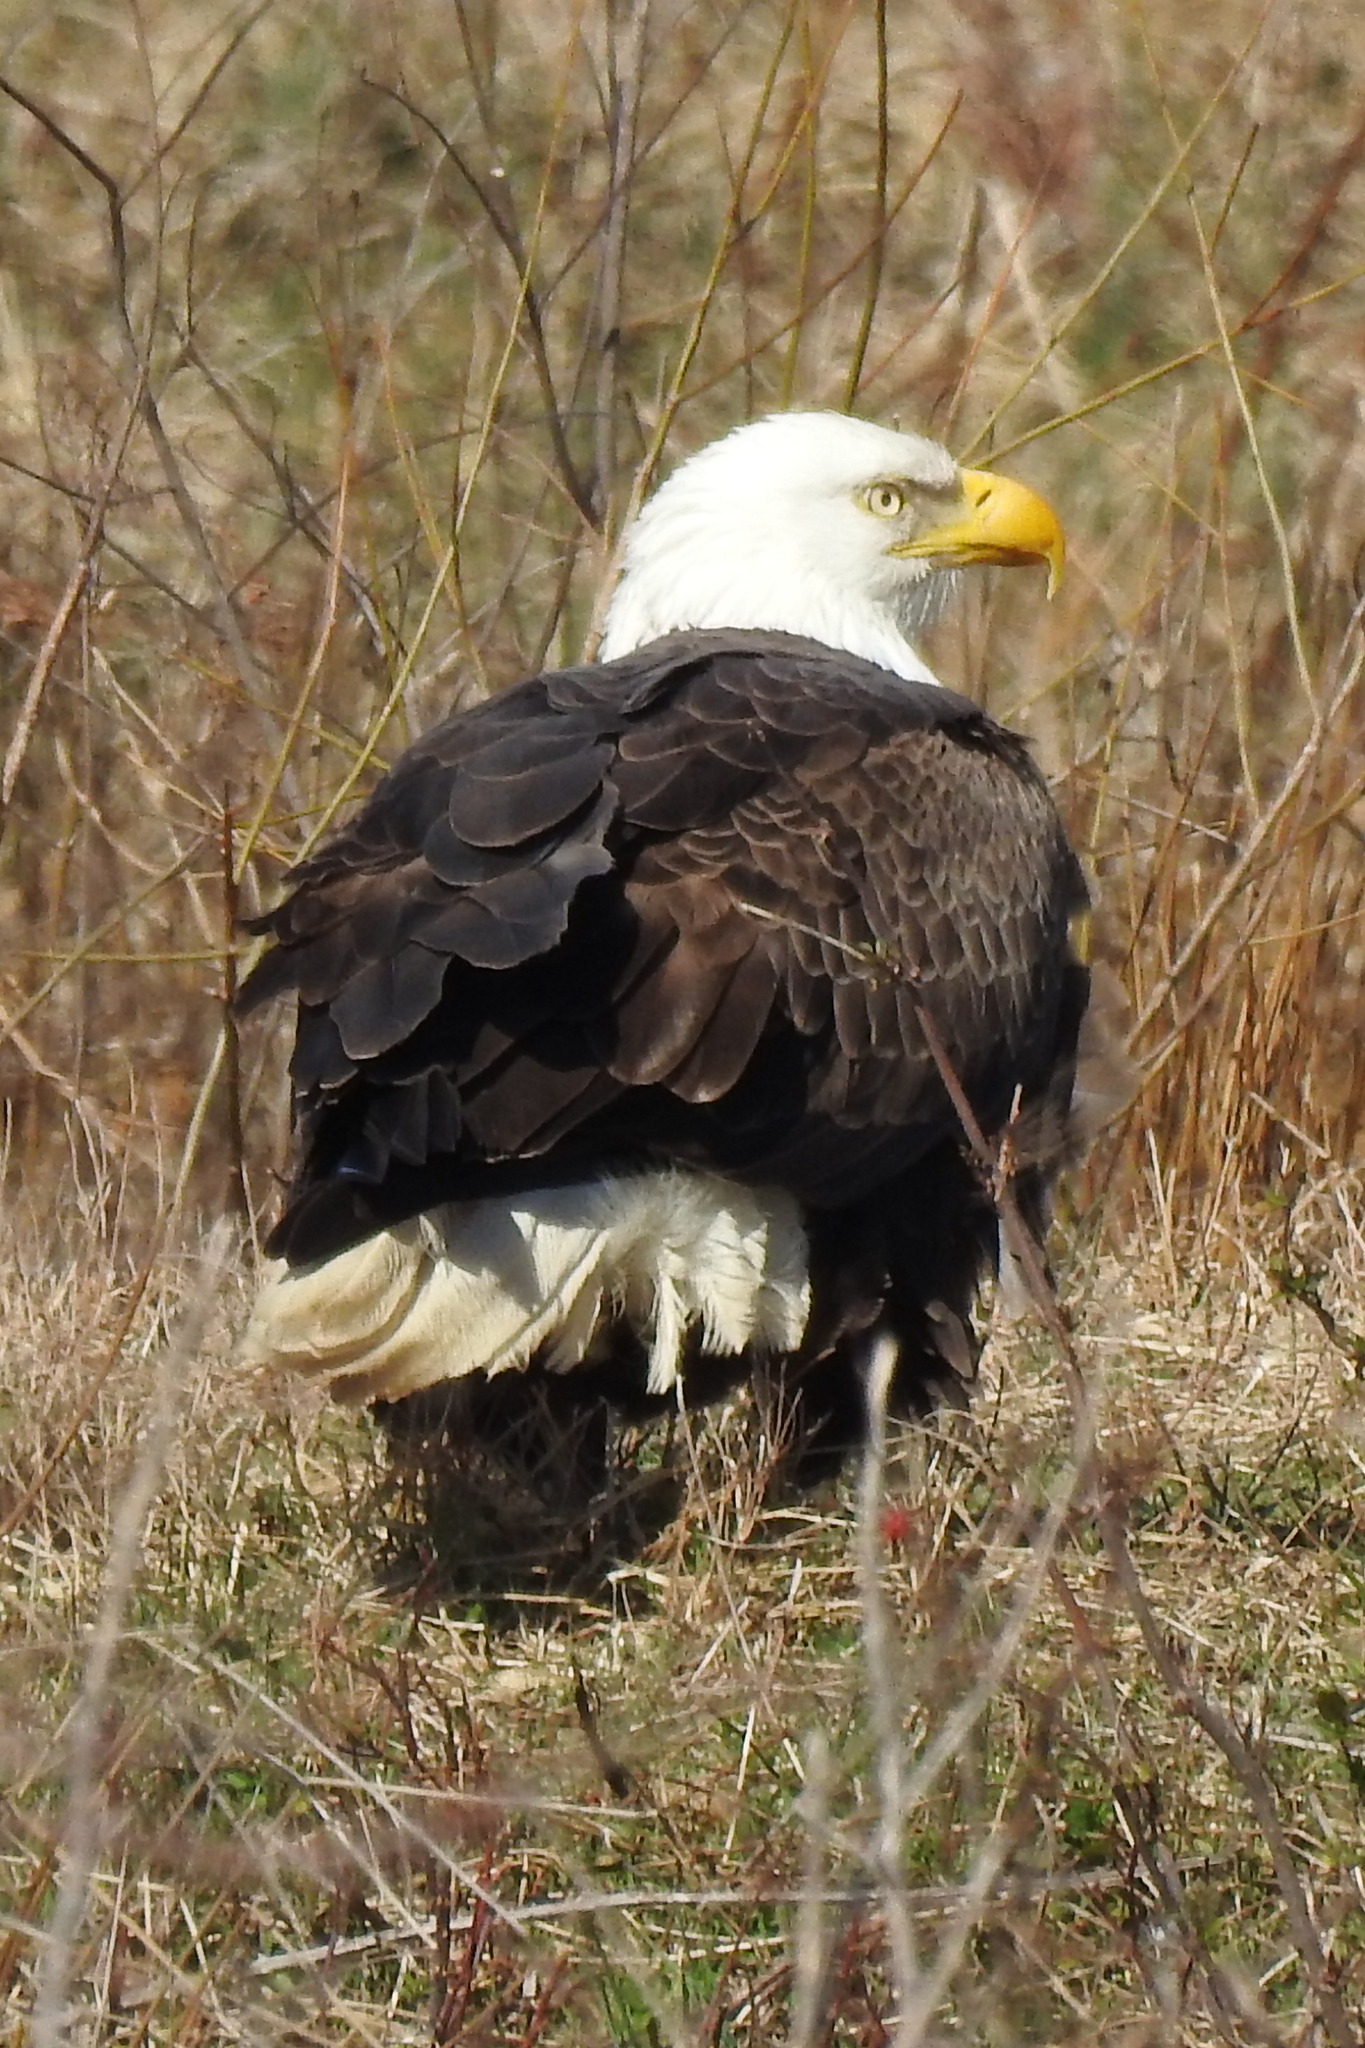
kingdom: Animalia
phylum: Chordata
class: Aves
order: Accipitriformes
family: Accipitridae
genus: Haliaeetus
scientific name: Haliaeetus leucocephalus
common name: Bald eagle
